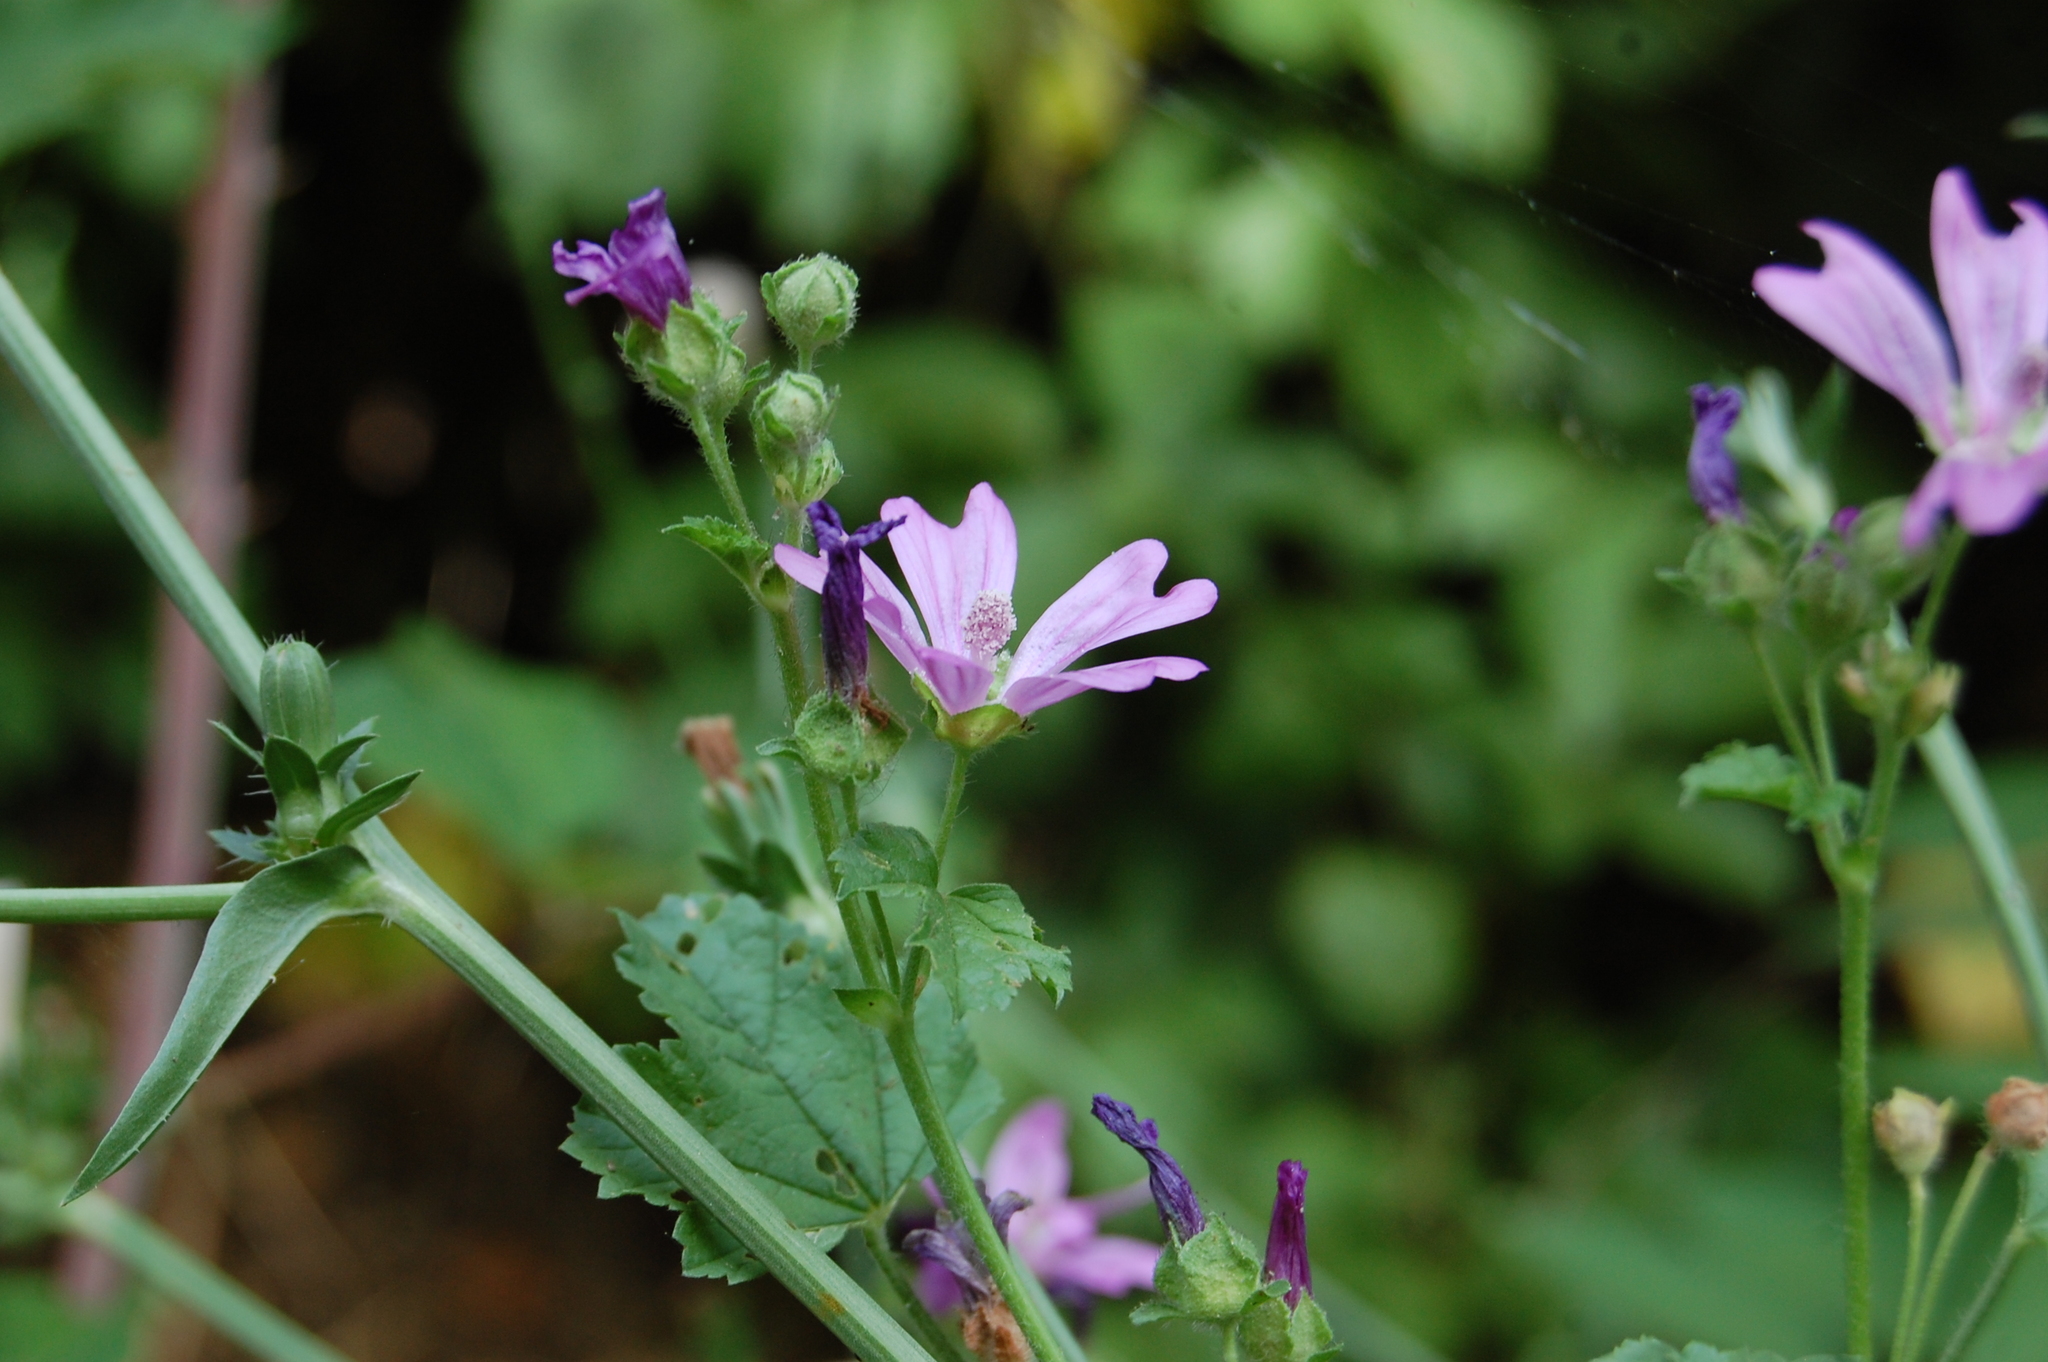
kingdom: Plantae
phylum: Tracheophyta
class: Magnoliopsida
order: Malvales
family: Malvaceae
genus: Malva
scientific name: Malva sylvestris
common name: Common mallow
